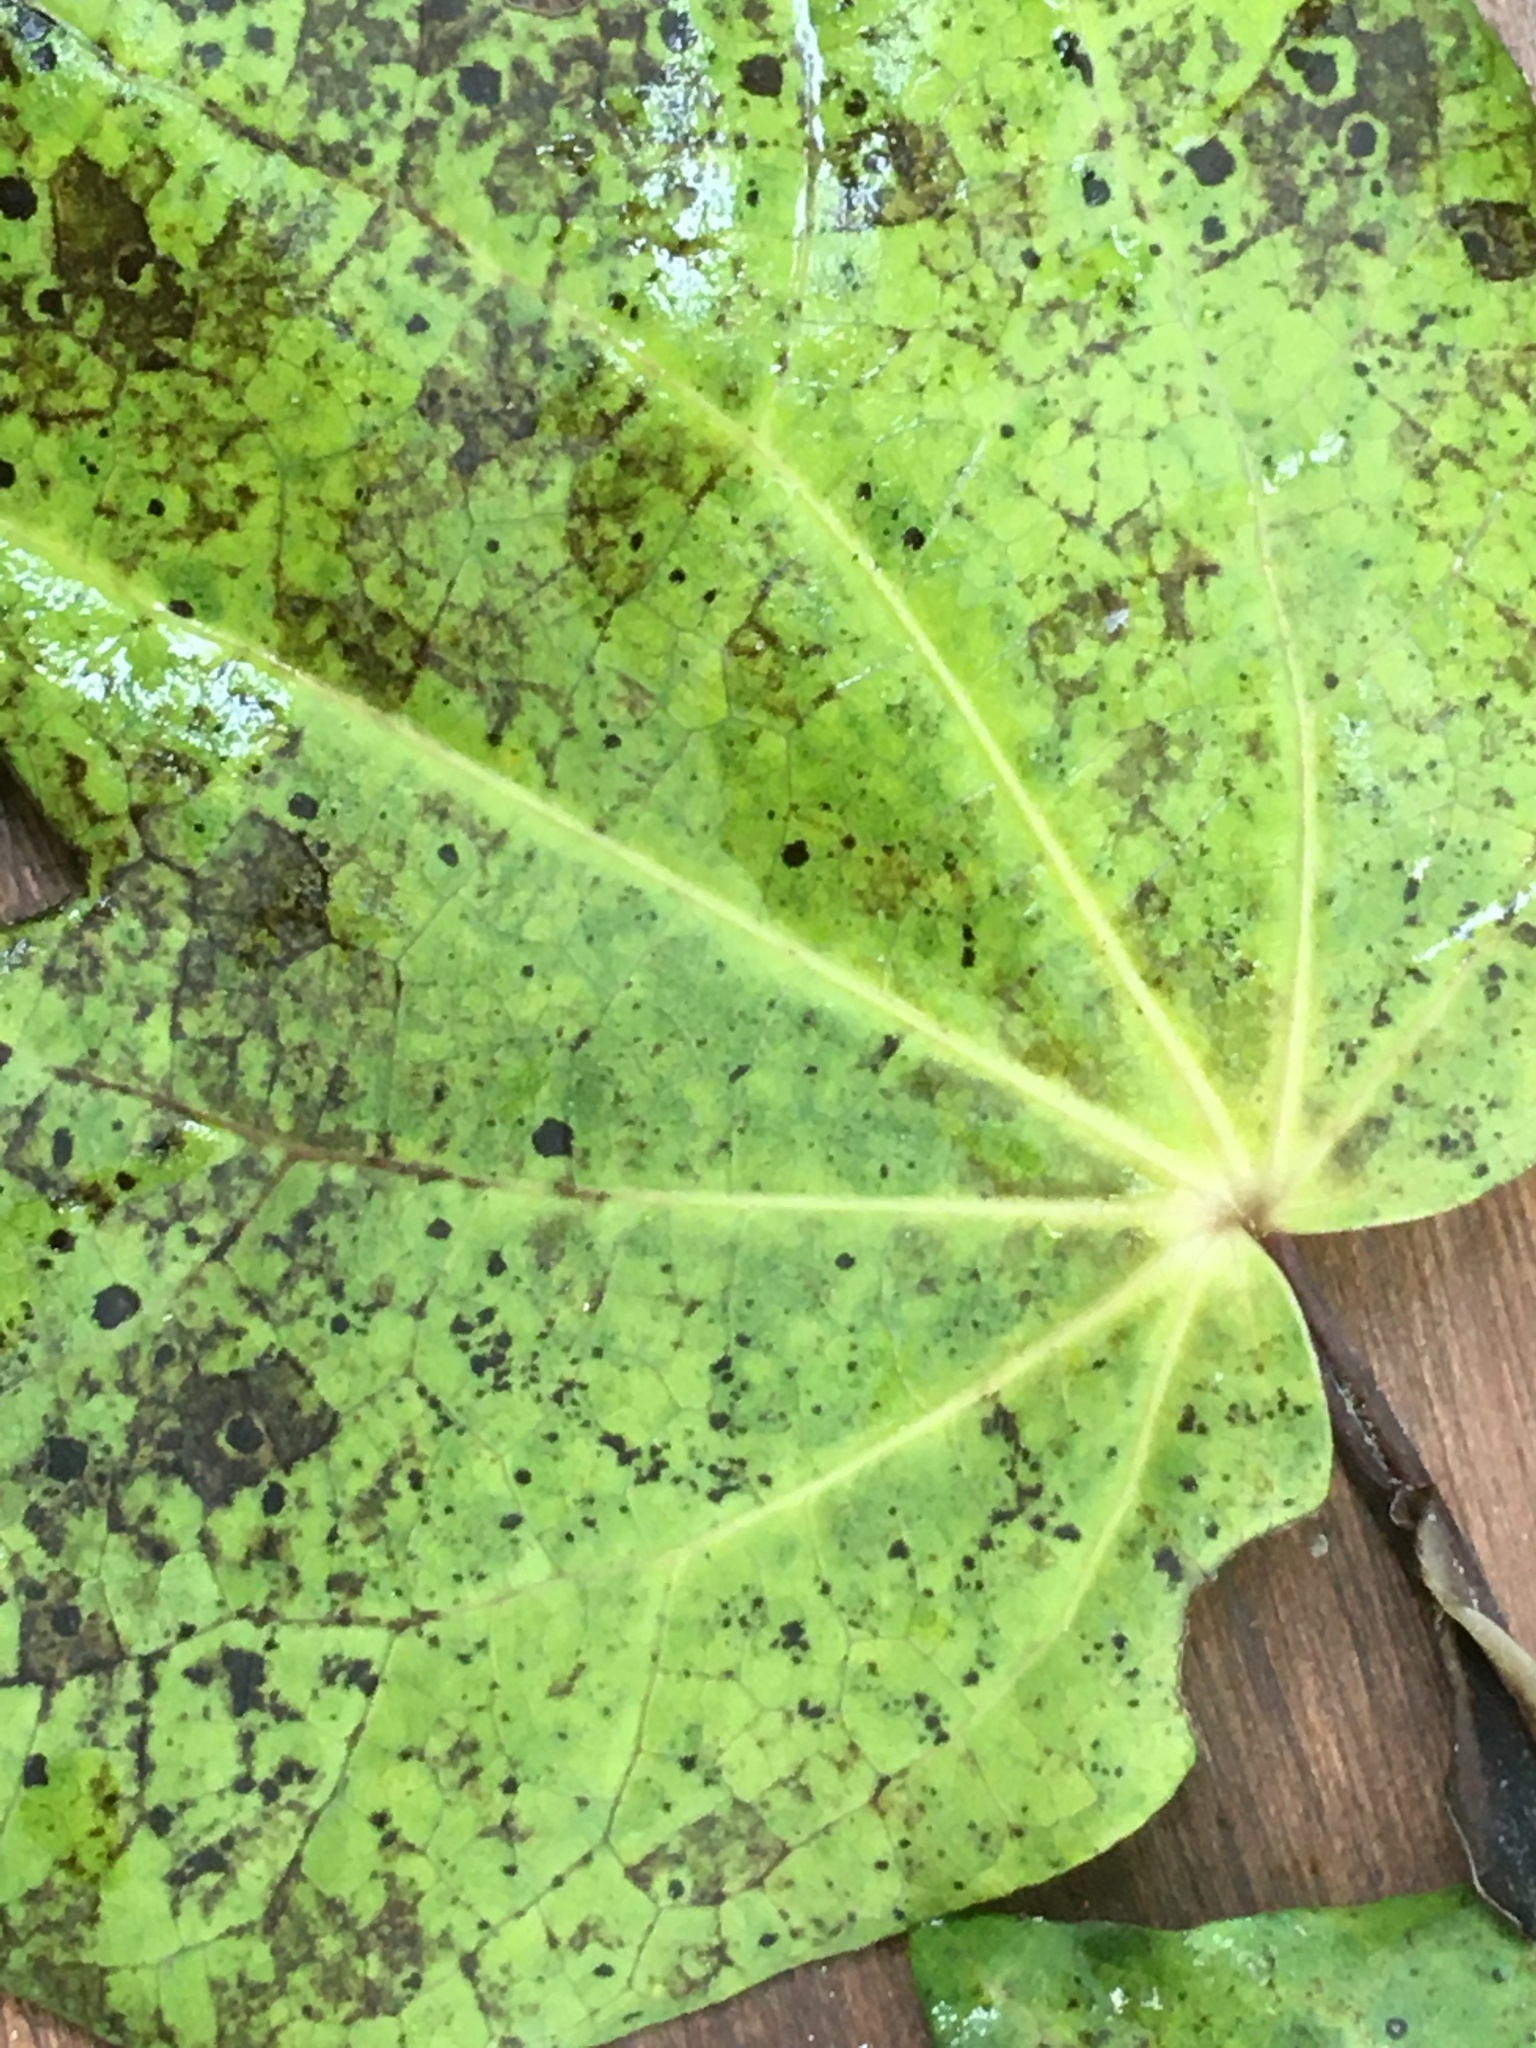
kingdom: Plantae
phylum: Tracheophyta
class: Magnoliopsida
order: Piperales
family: Piperaceae
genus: Macropiper
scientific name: Macropiper excelsum
